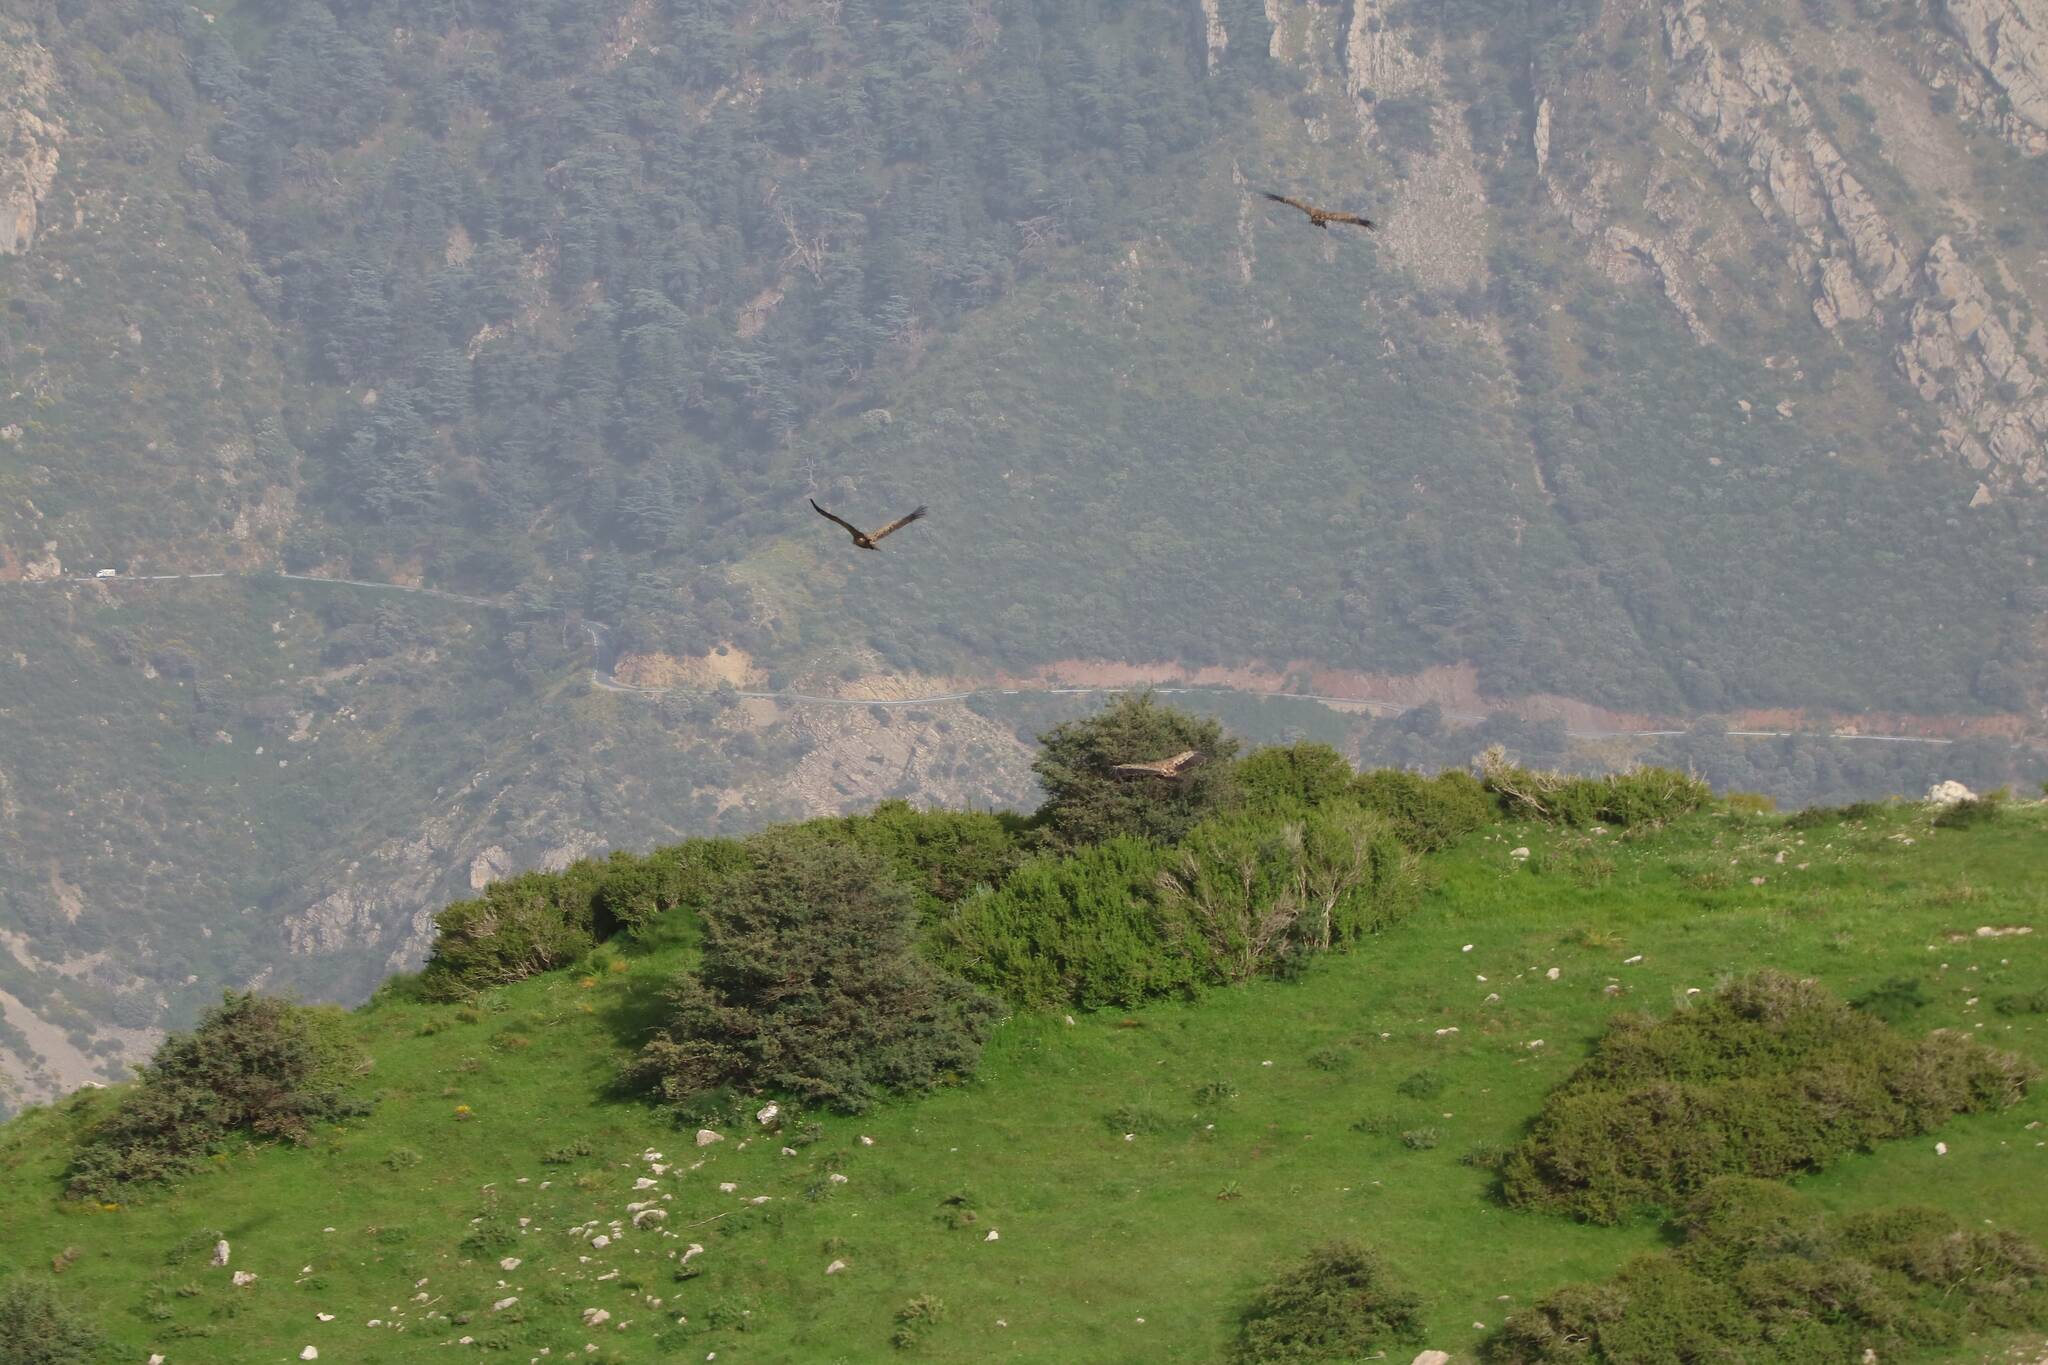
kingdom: Animalia
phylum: Chordata
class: Aves
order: Accipitriformes
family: Accipitridae
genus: Gyps
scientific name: Gyps fulvus
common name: Griffon vulture
